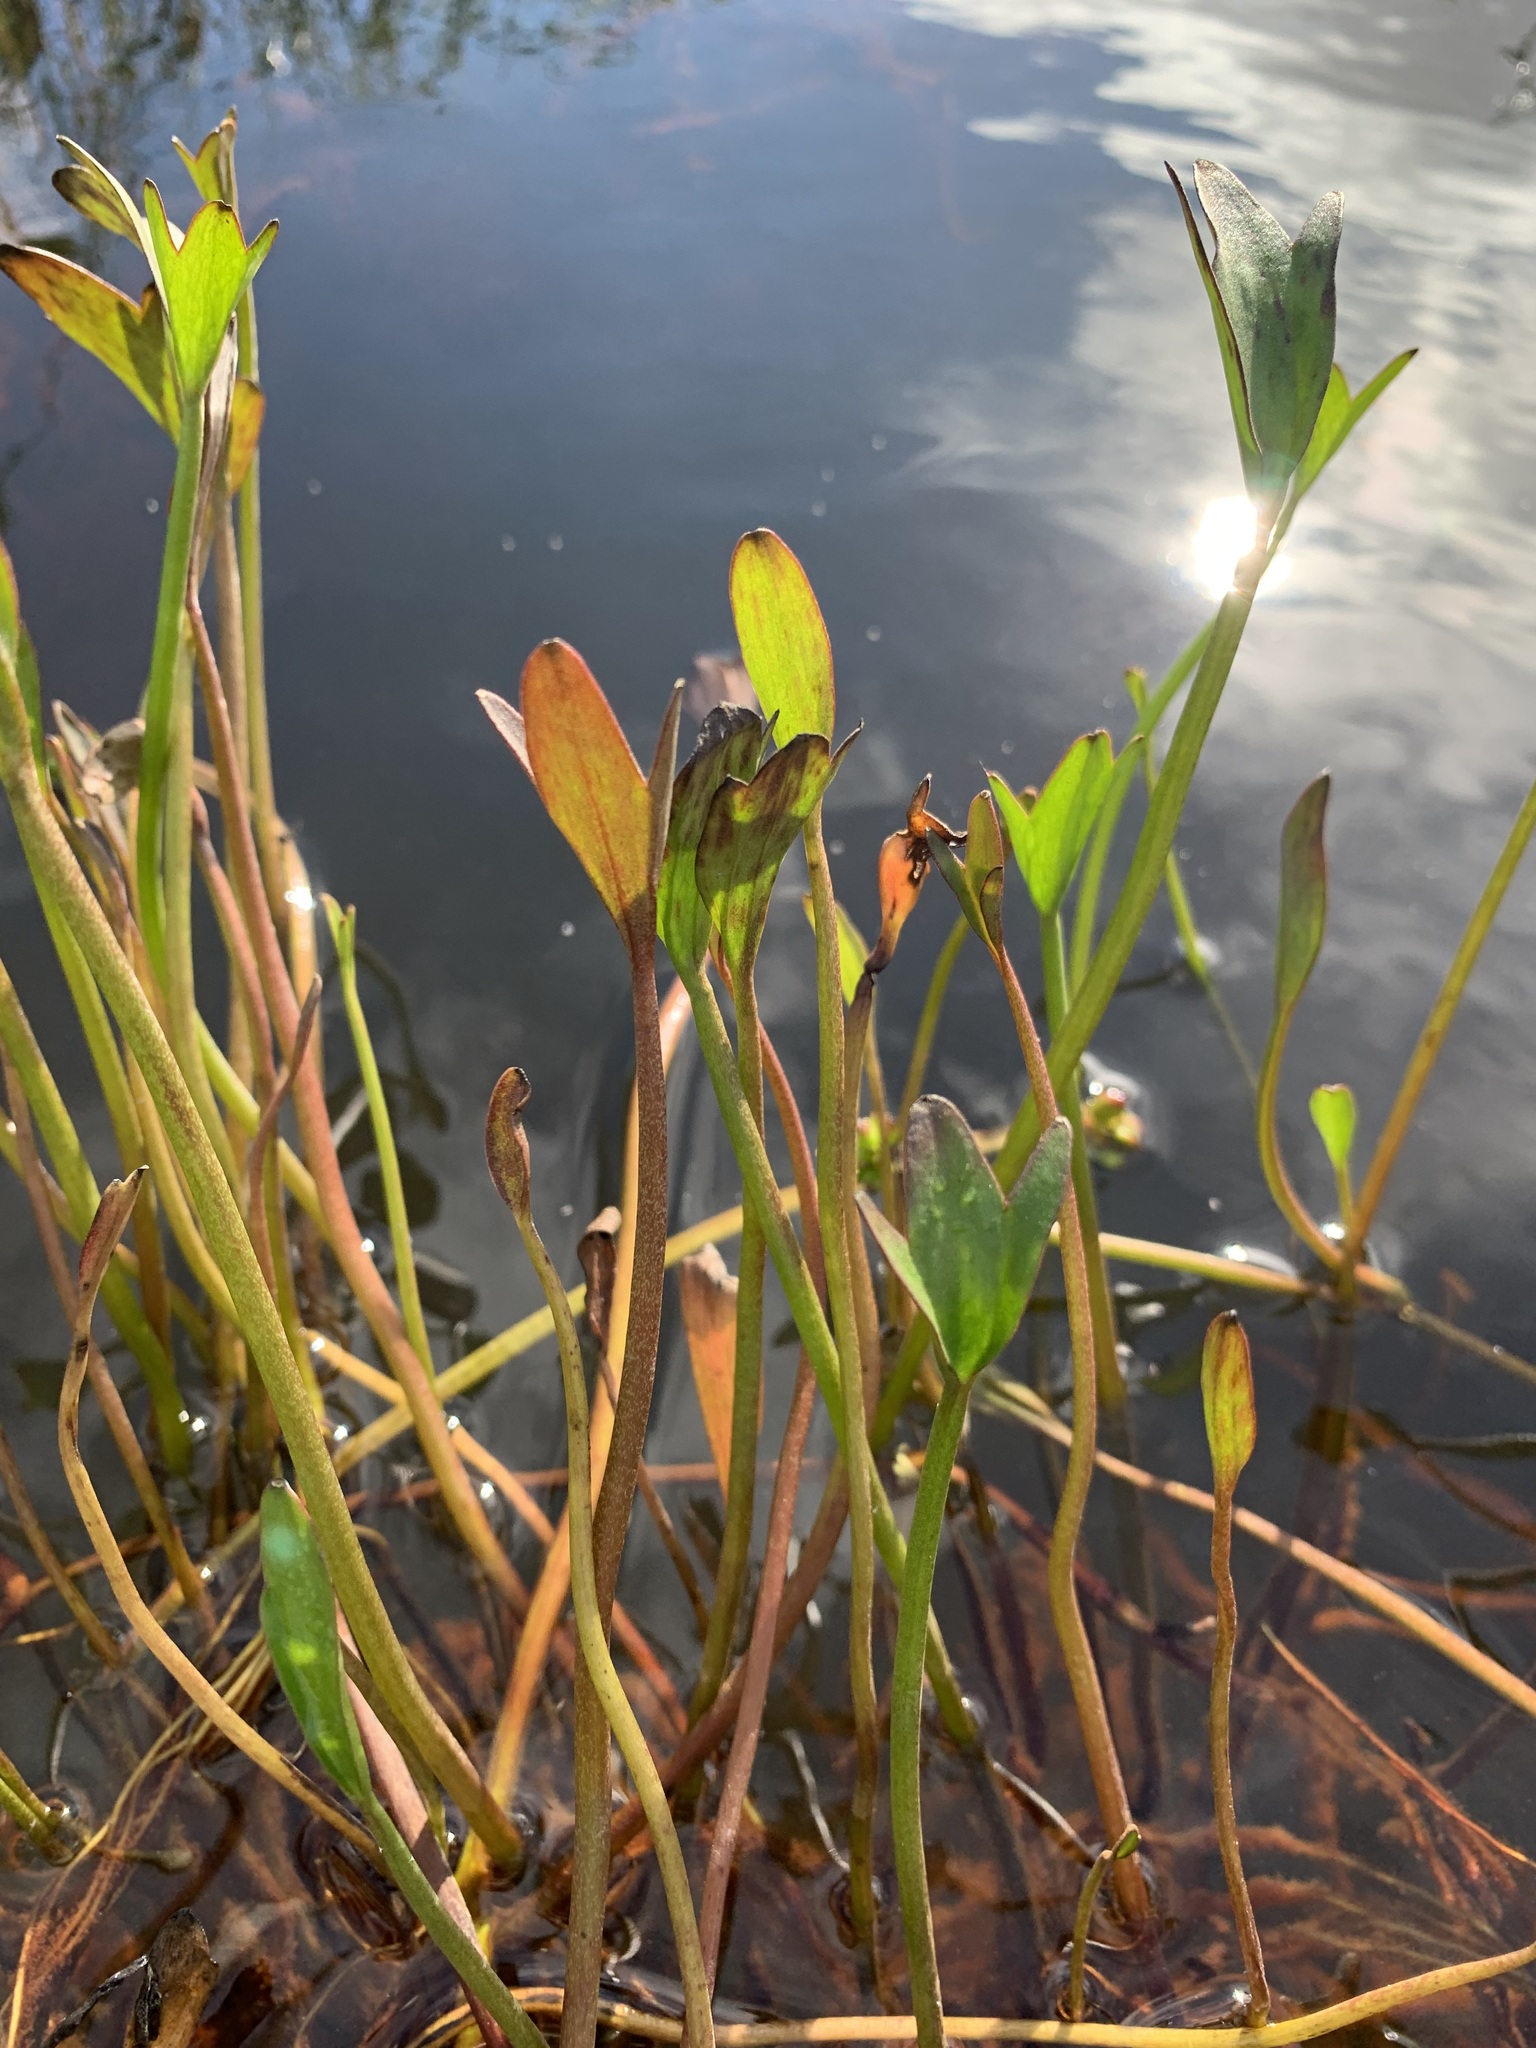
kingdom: Plantae
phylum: Tracheophyta
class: Magnoliopsida
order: Ranunculales
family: Ranunculaceae
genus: Coptidium
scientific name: Coptidium pallasii
